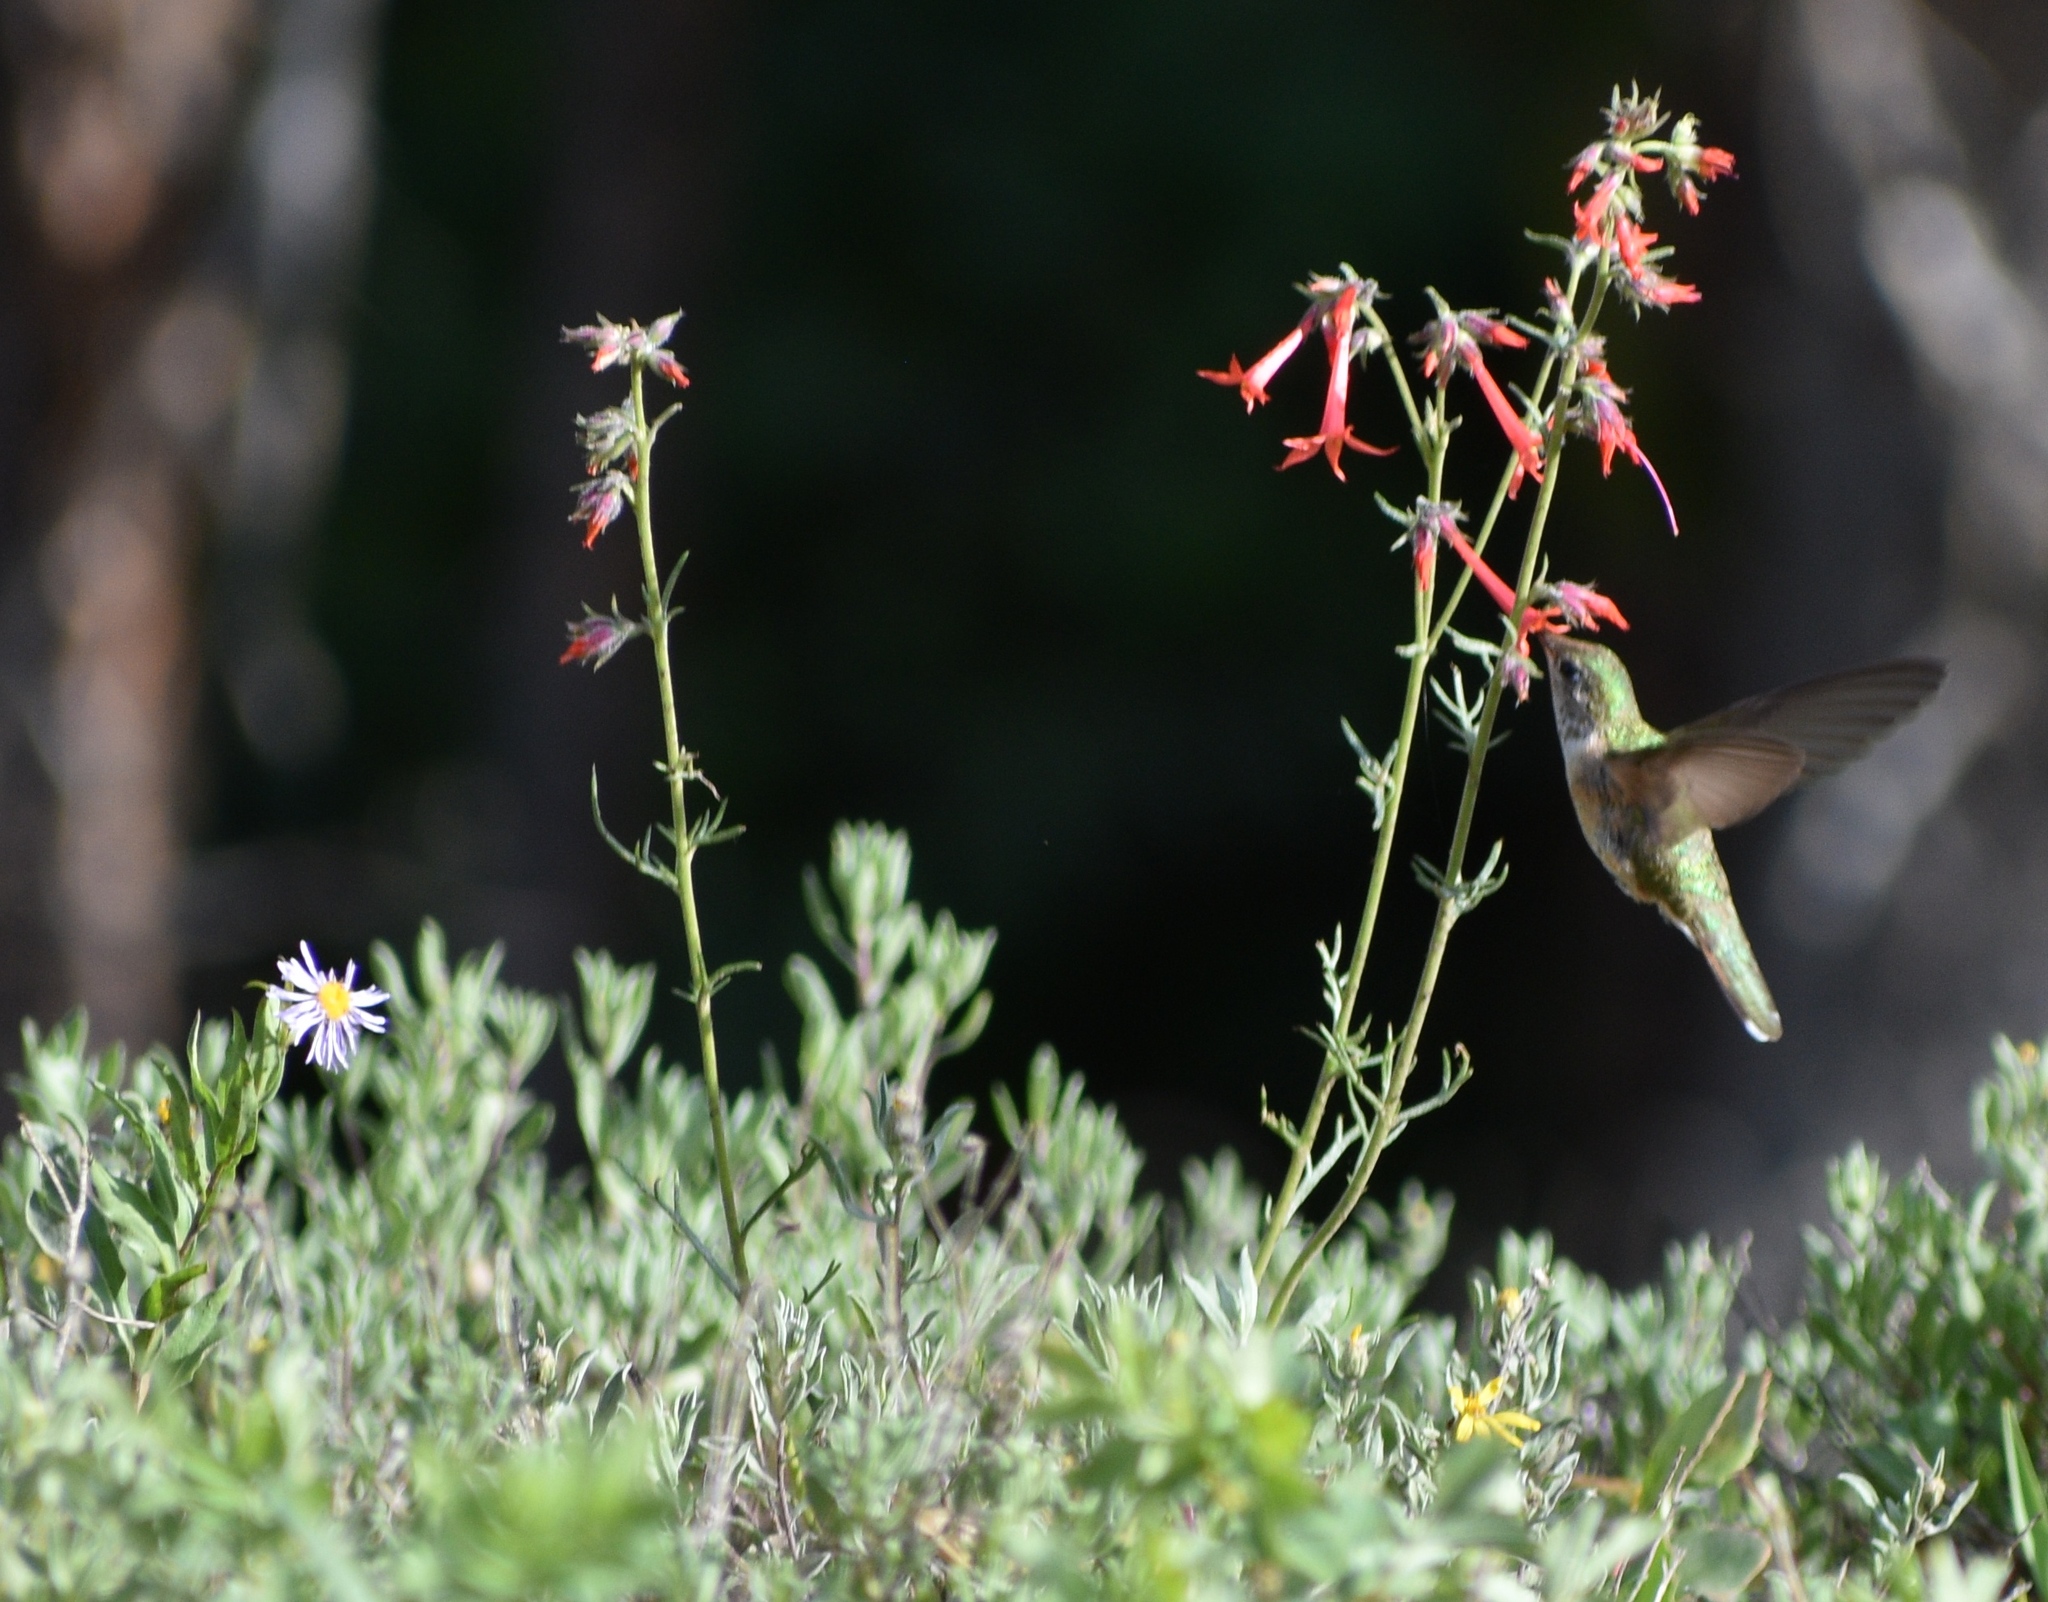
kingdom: Animalia
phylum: Chordata
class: Aves
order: Apodiformes
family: Trochilidae
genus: Selasphorus
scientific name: Selasphorus platycercus
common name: Broad-tailed hummingbird
